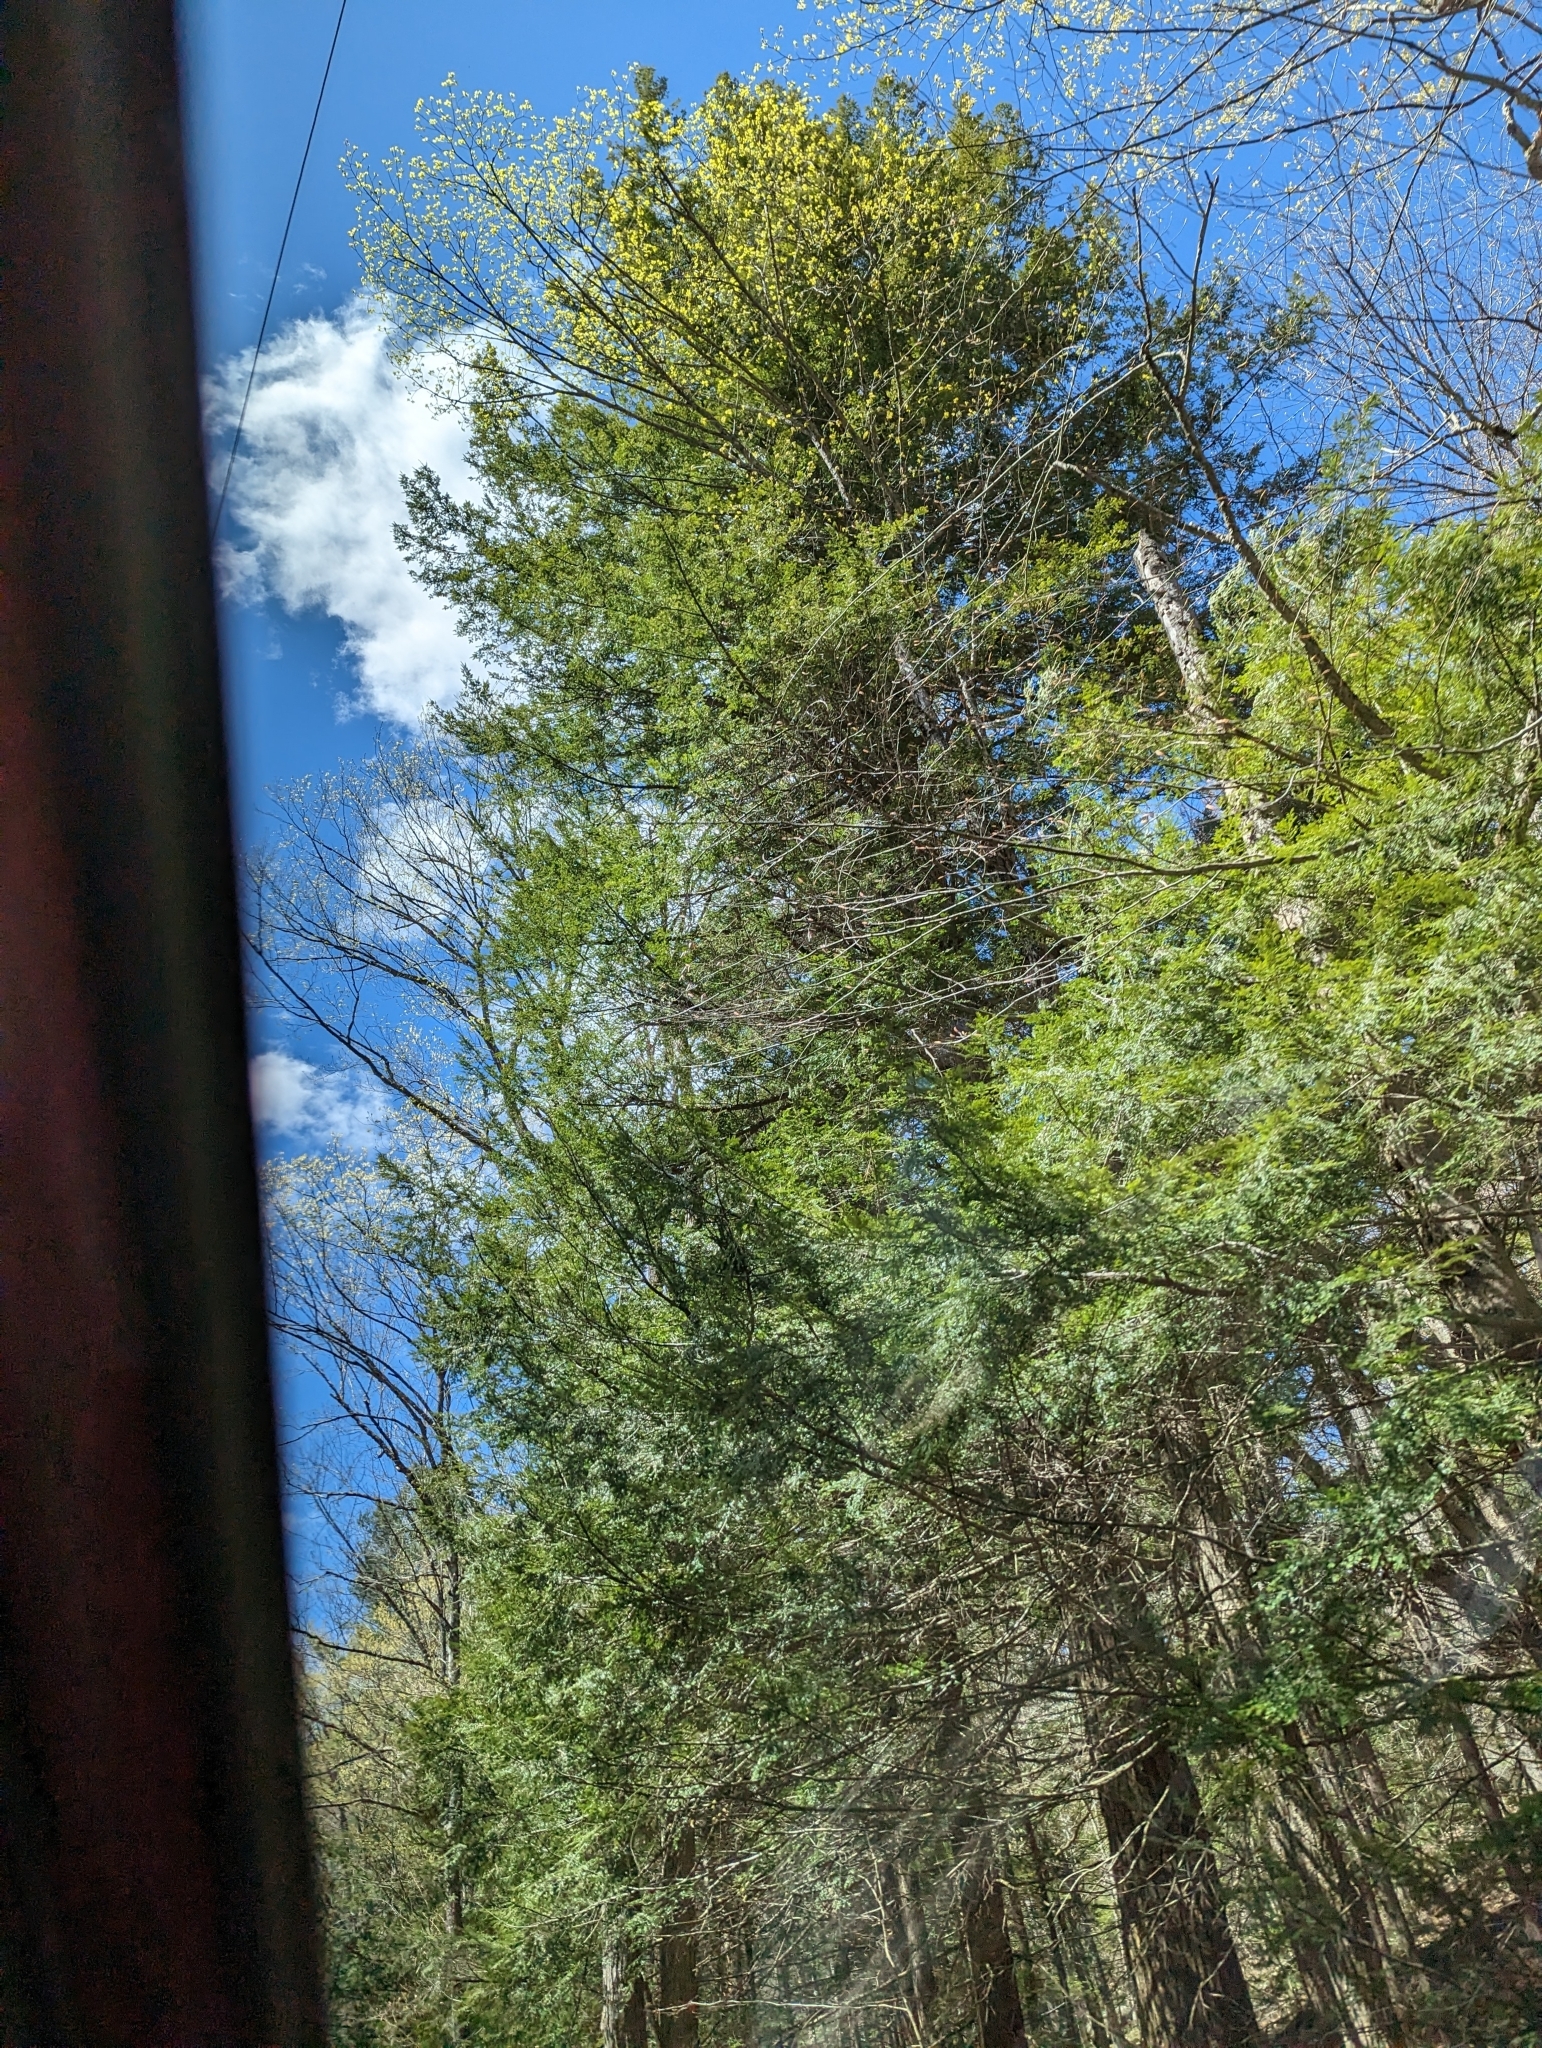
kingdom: Plantae
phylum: Tracheophyta
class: Pinopsida
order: Pinales
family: Pinaceae
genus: Pinus
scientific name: Pinus strobus
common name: Weymouth pine
